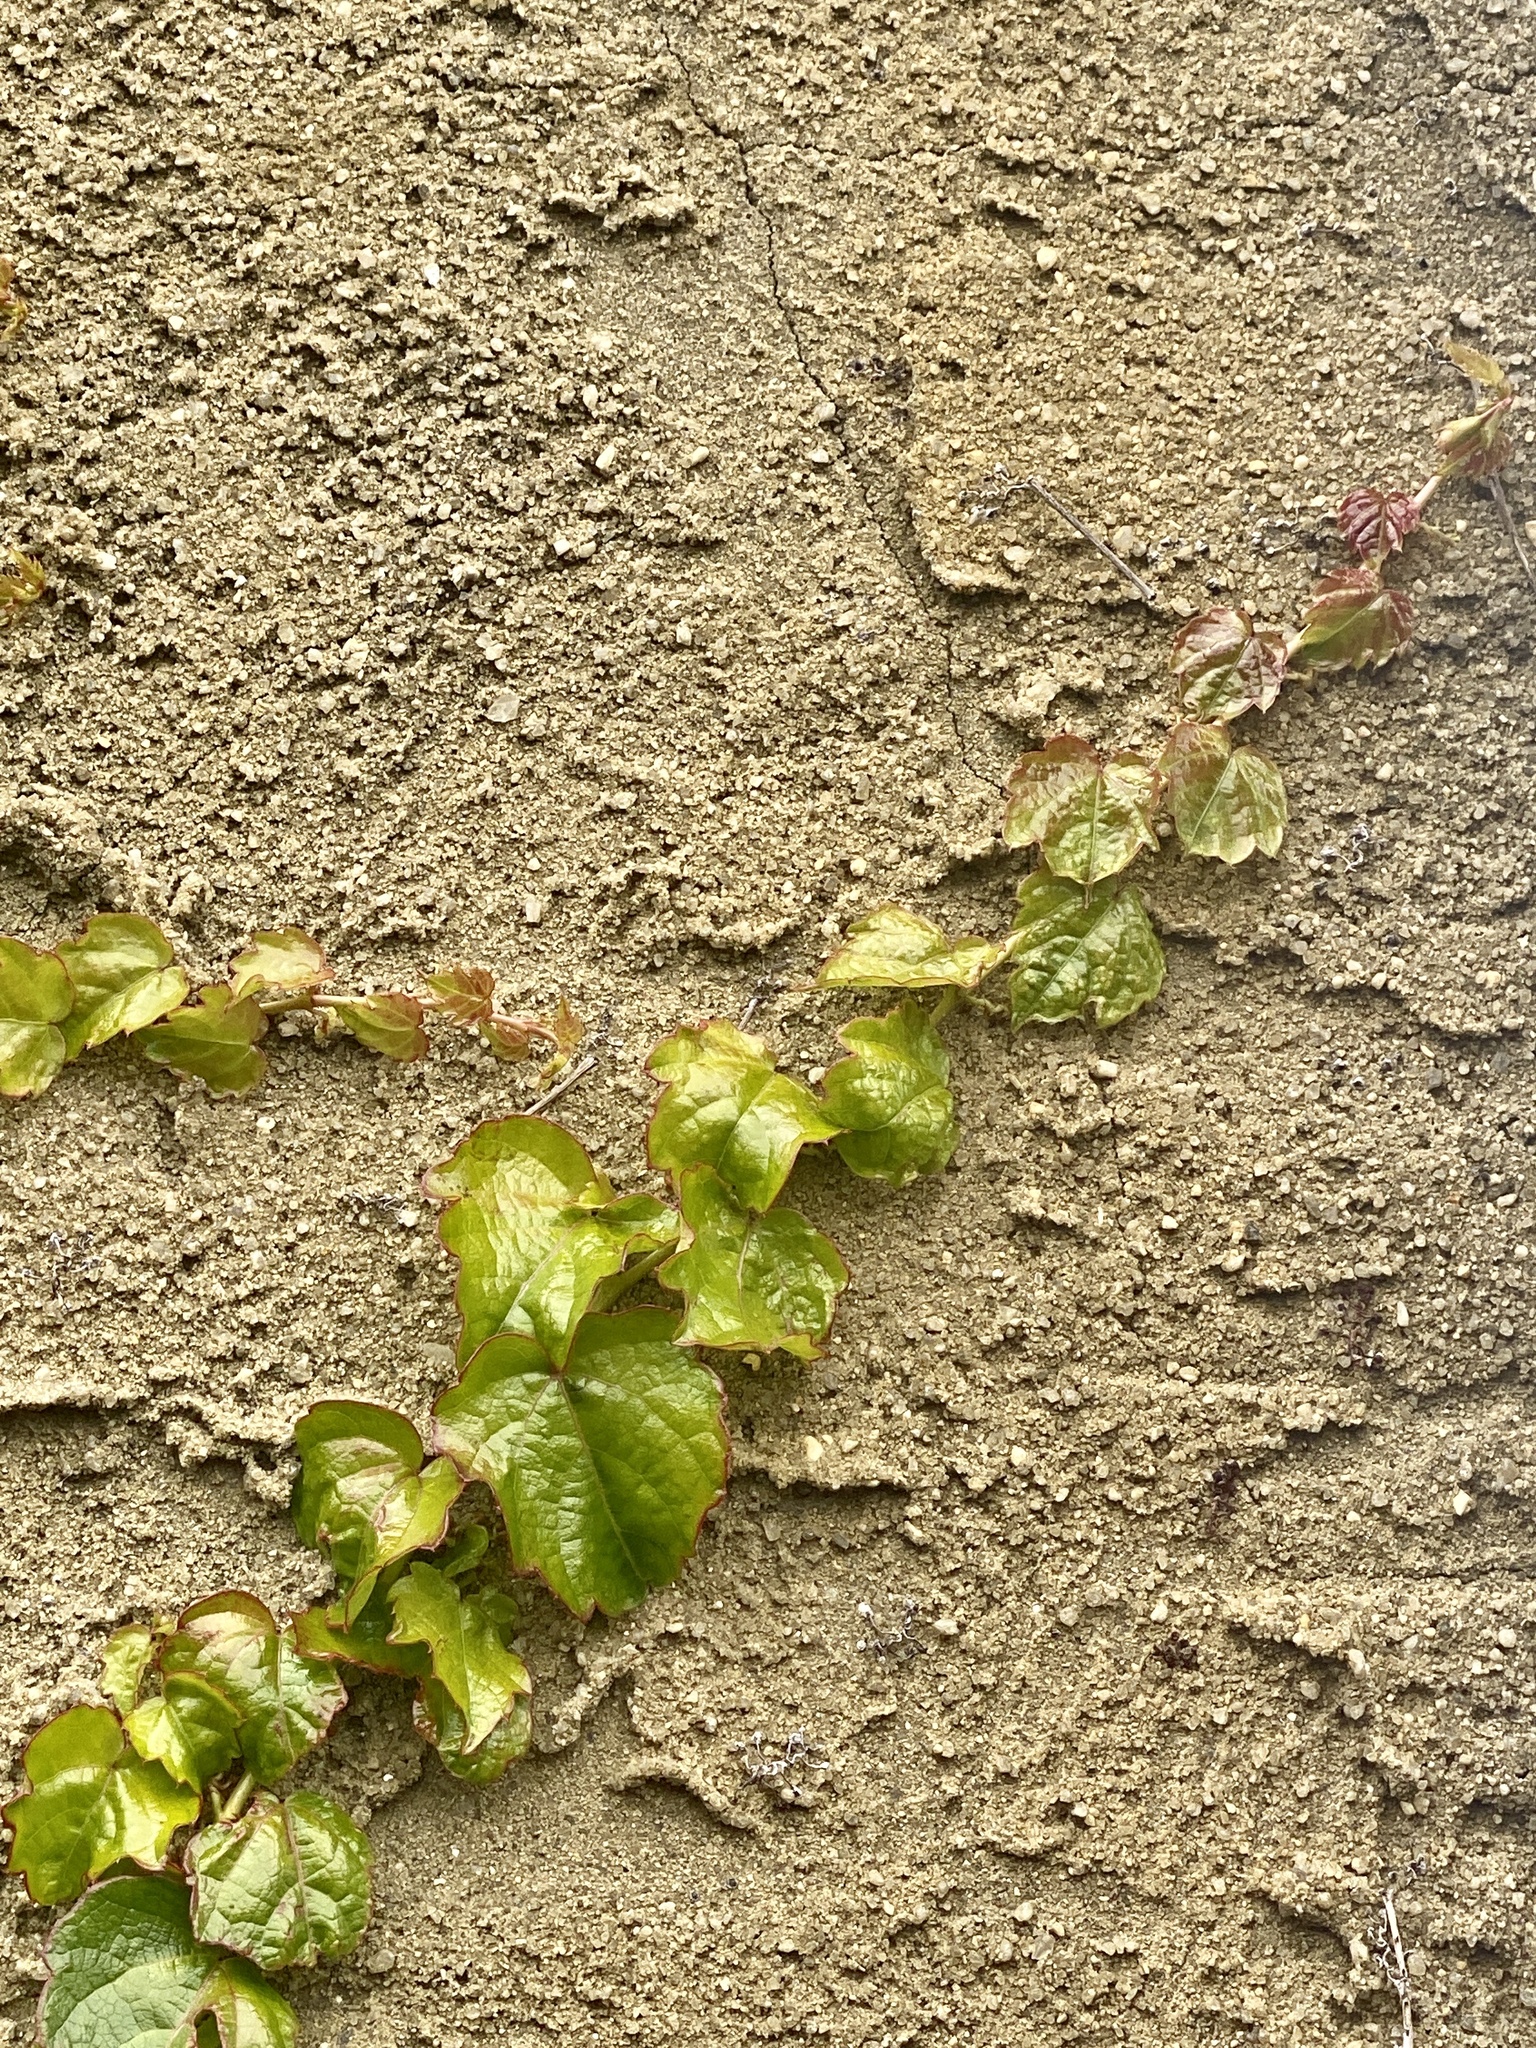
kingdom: Plantae
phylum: Tracheophyta
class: Magnoliopsida
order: Vitales
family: Vitaceae
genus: Parthenocissus
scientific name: Parthenocissus tricuspidata
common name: Boston ivy
